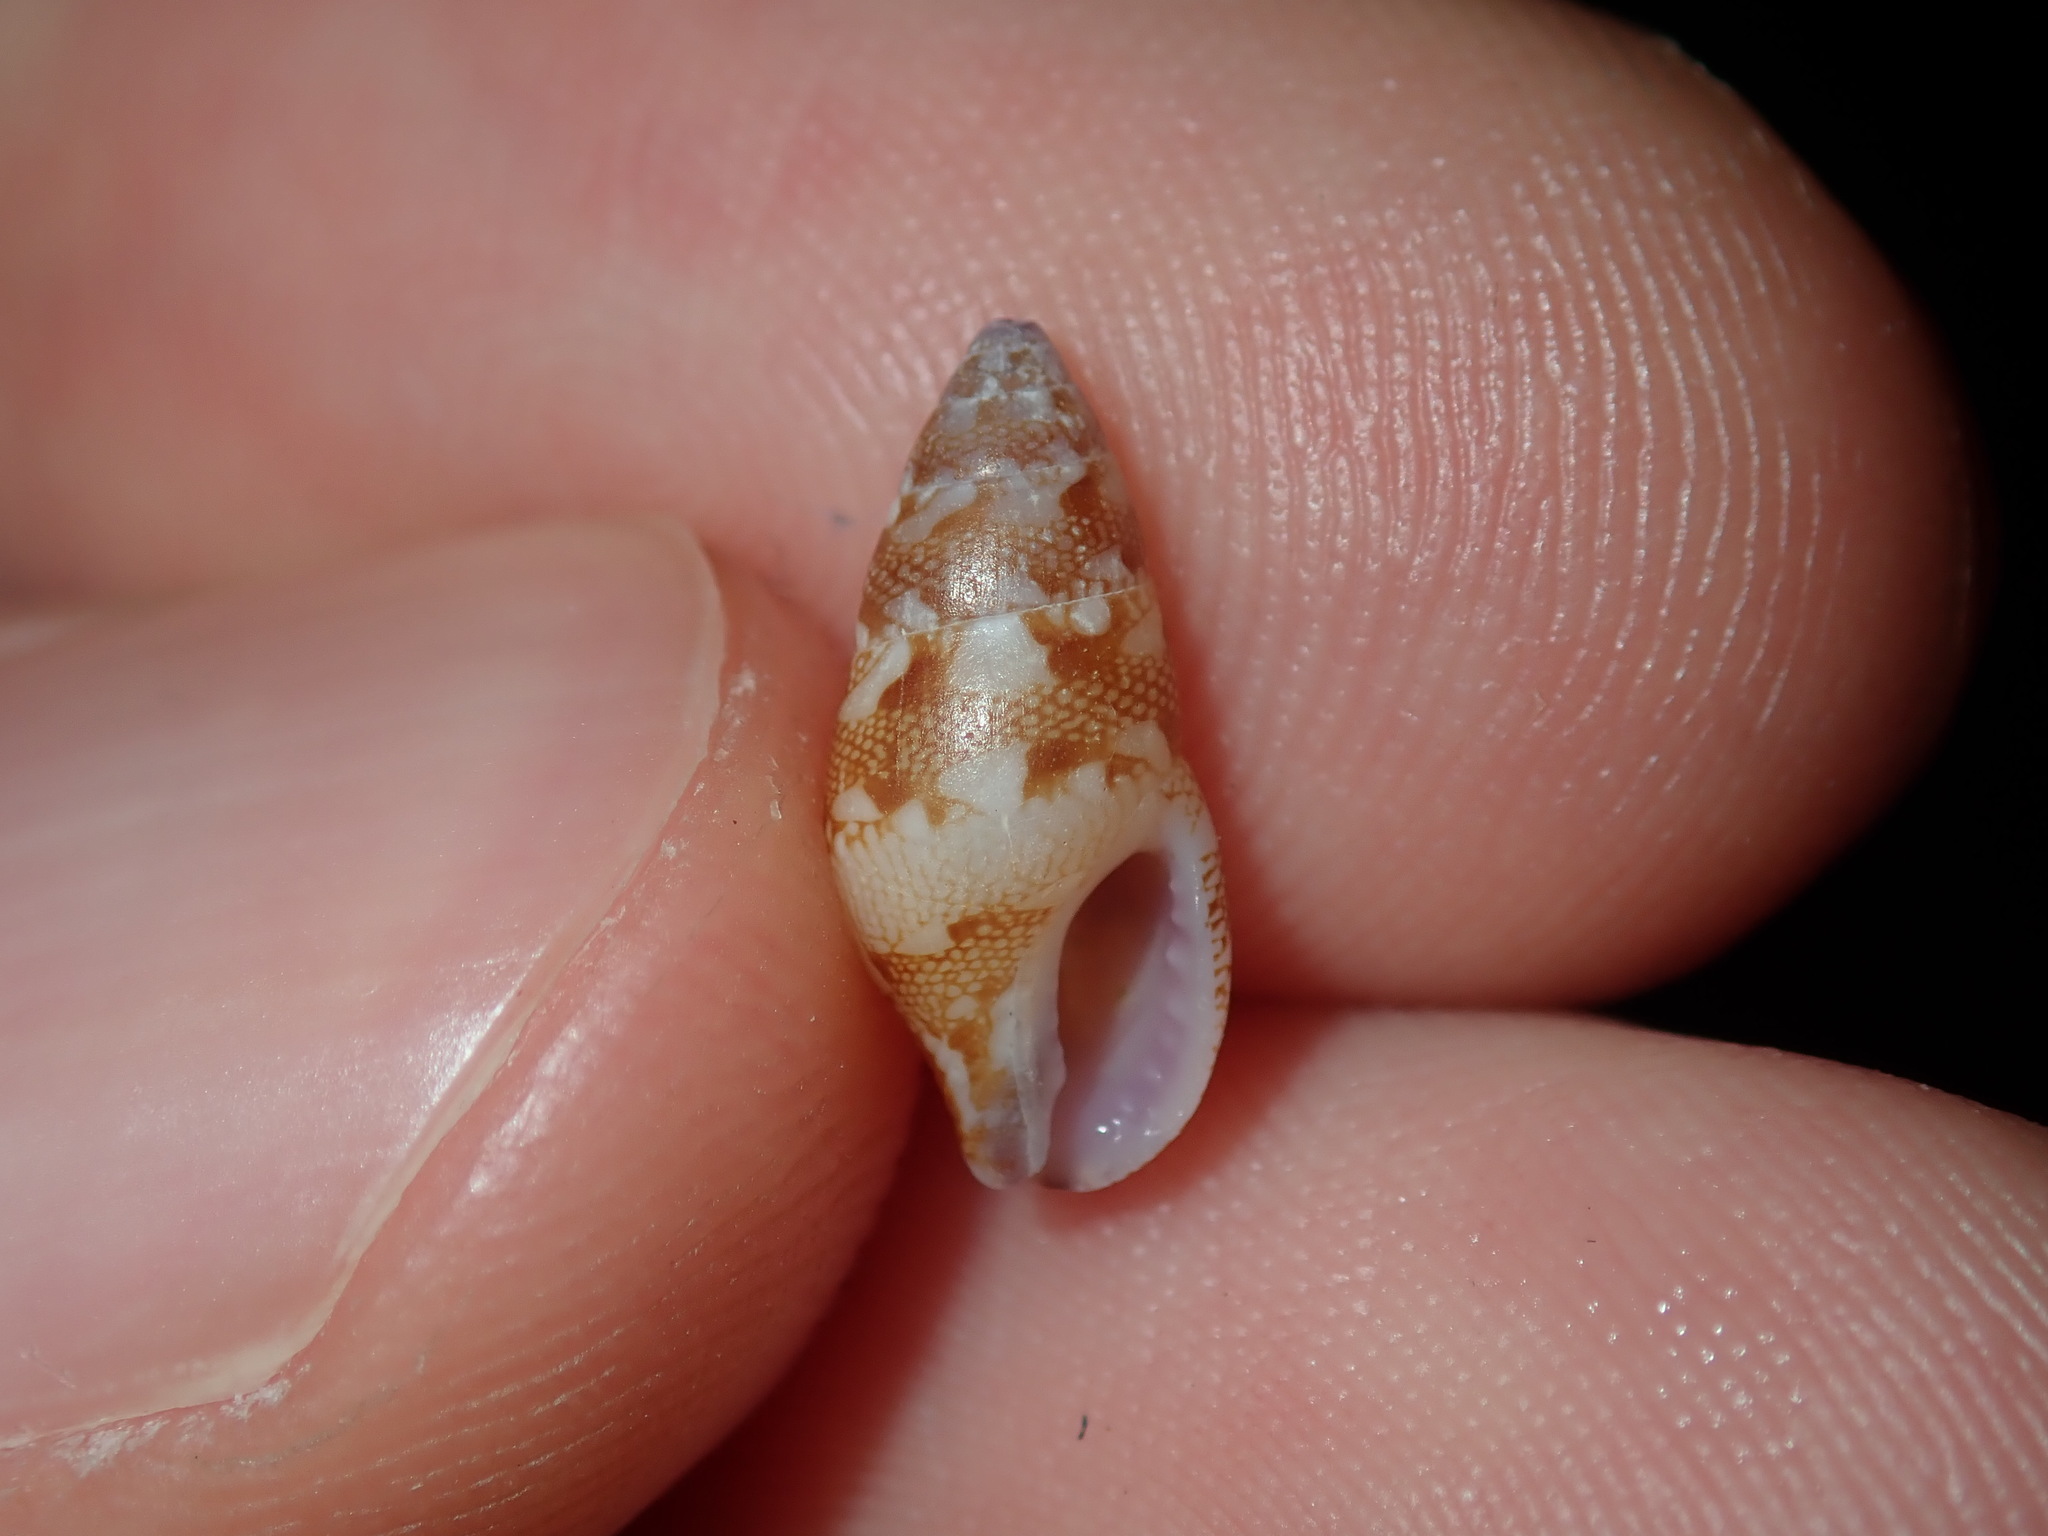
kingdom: Animalia
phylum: Mollusca
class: Gastropoda
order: Neogastropoda
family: Columbellidae
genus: Mitrella
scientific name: Mitrella bicincta
